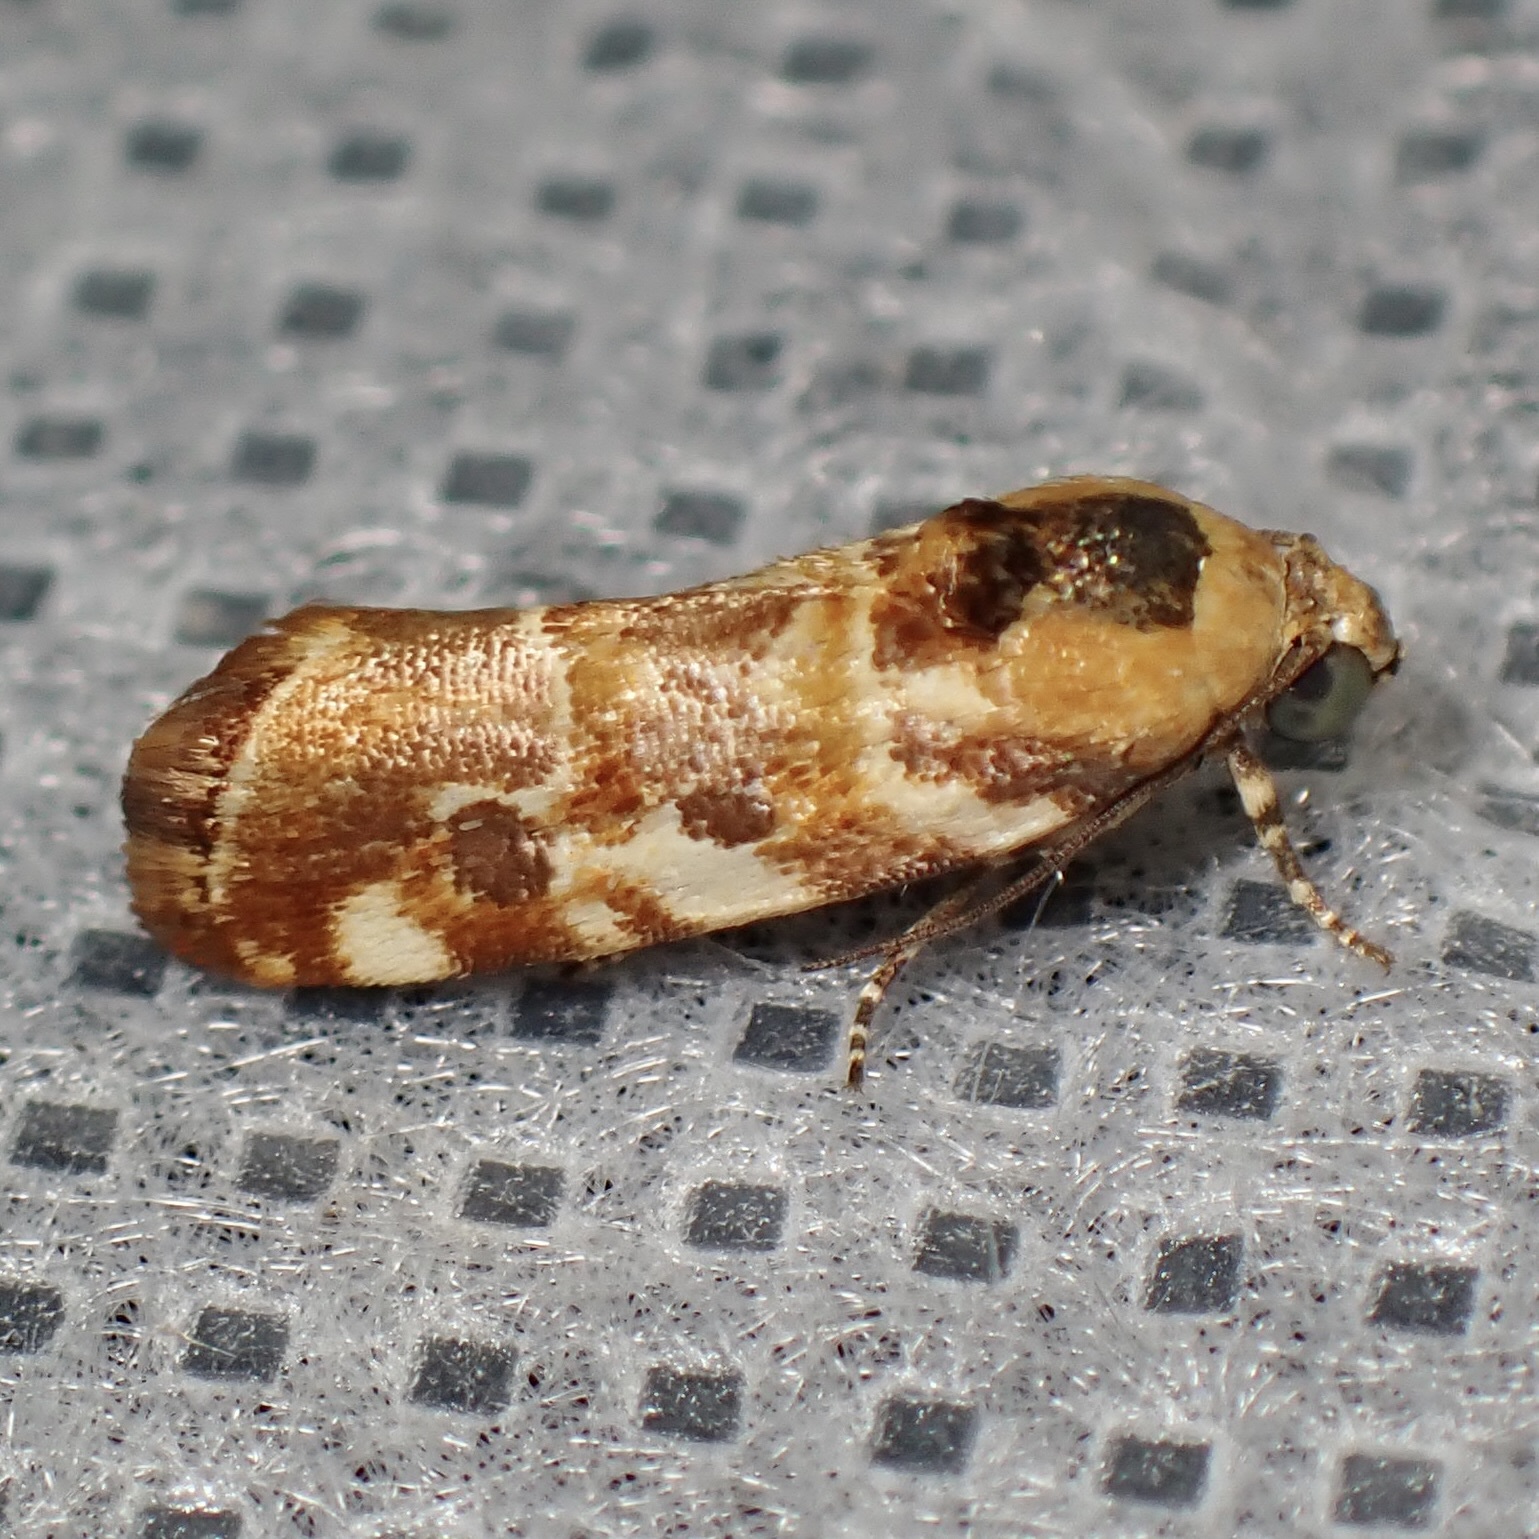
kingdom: Animalia
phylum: Arthropoda
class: Insecta
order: Lepidoptera
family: Noctuidae
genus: Spragueia
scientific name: Spragueia jaguaralis
